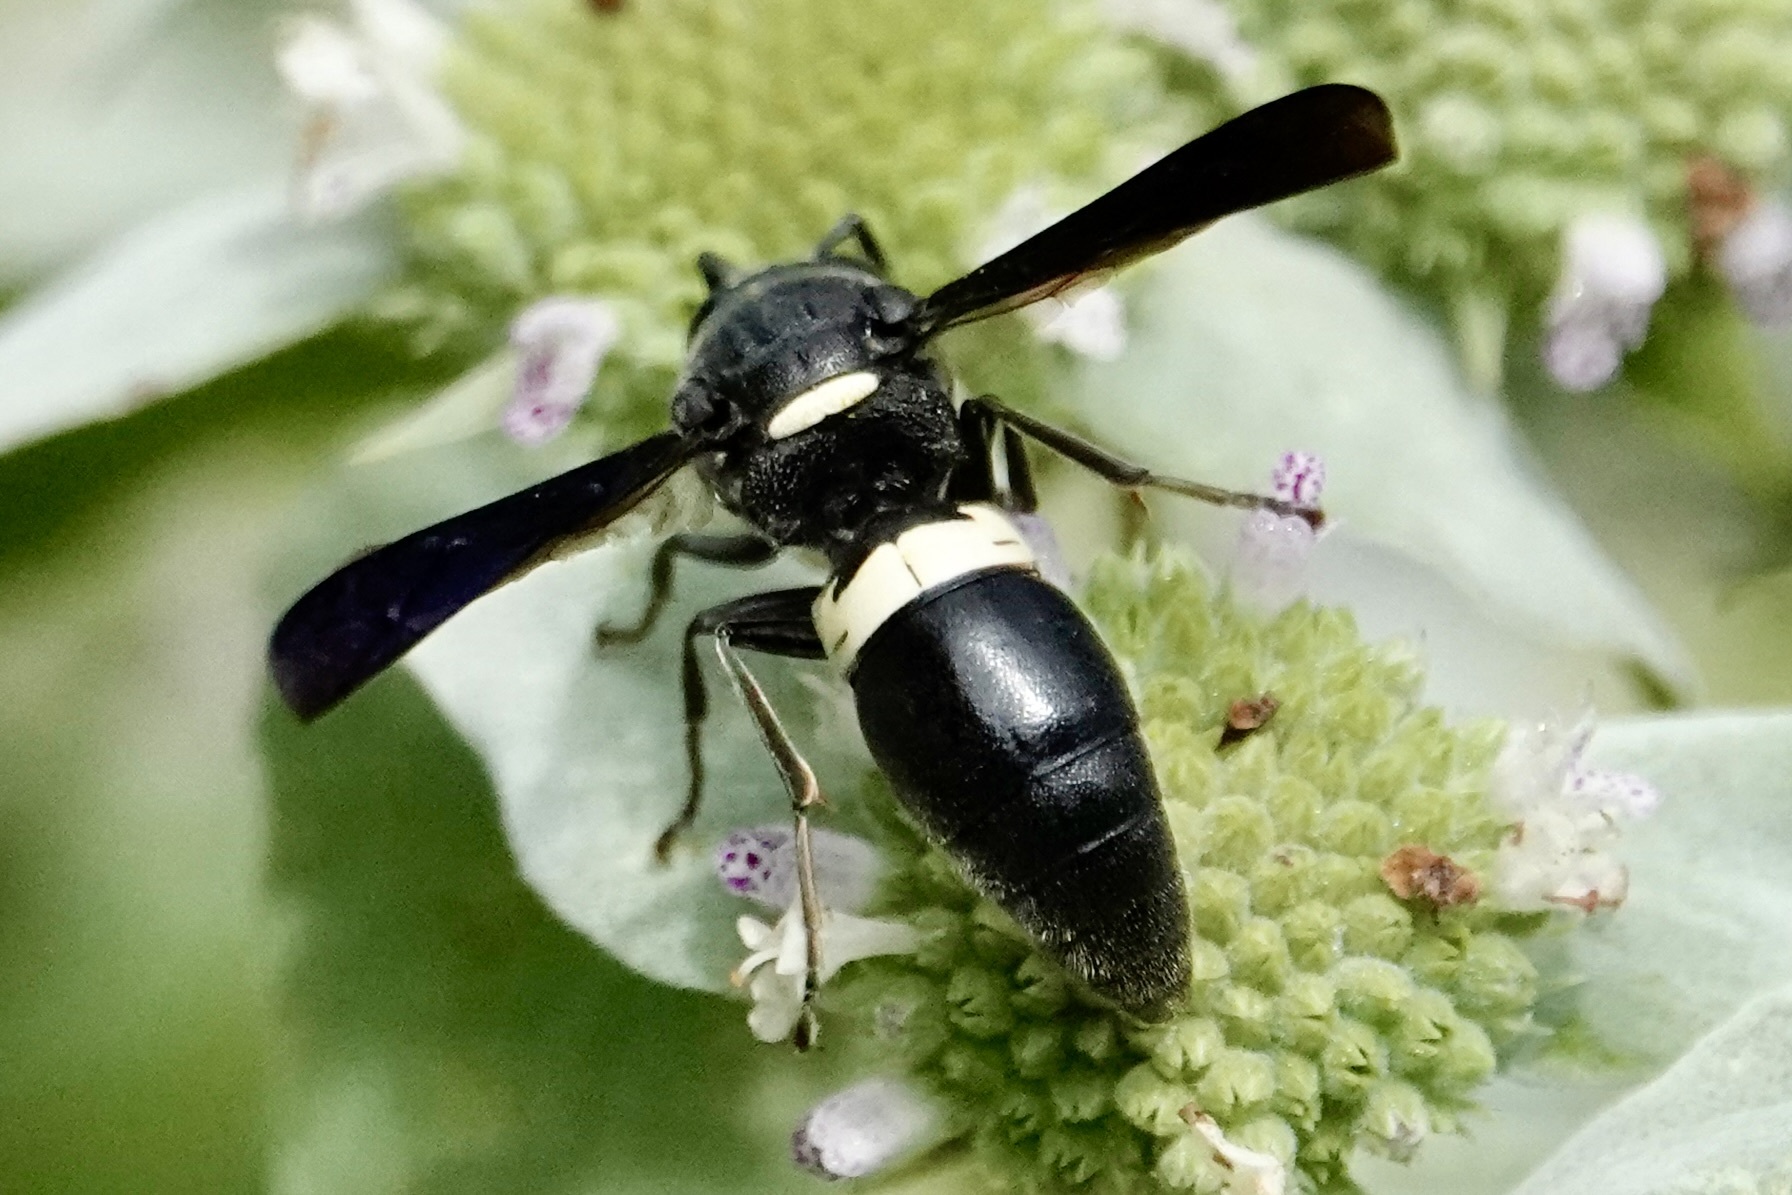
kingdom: Animalia
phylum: Arthropoda
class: Insecta
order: Hymenoptera
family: Eumenidae
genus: Monobia
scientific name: Monobia quadridens
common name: Four-toothed mason wasp
